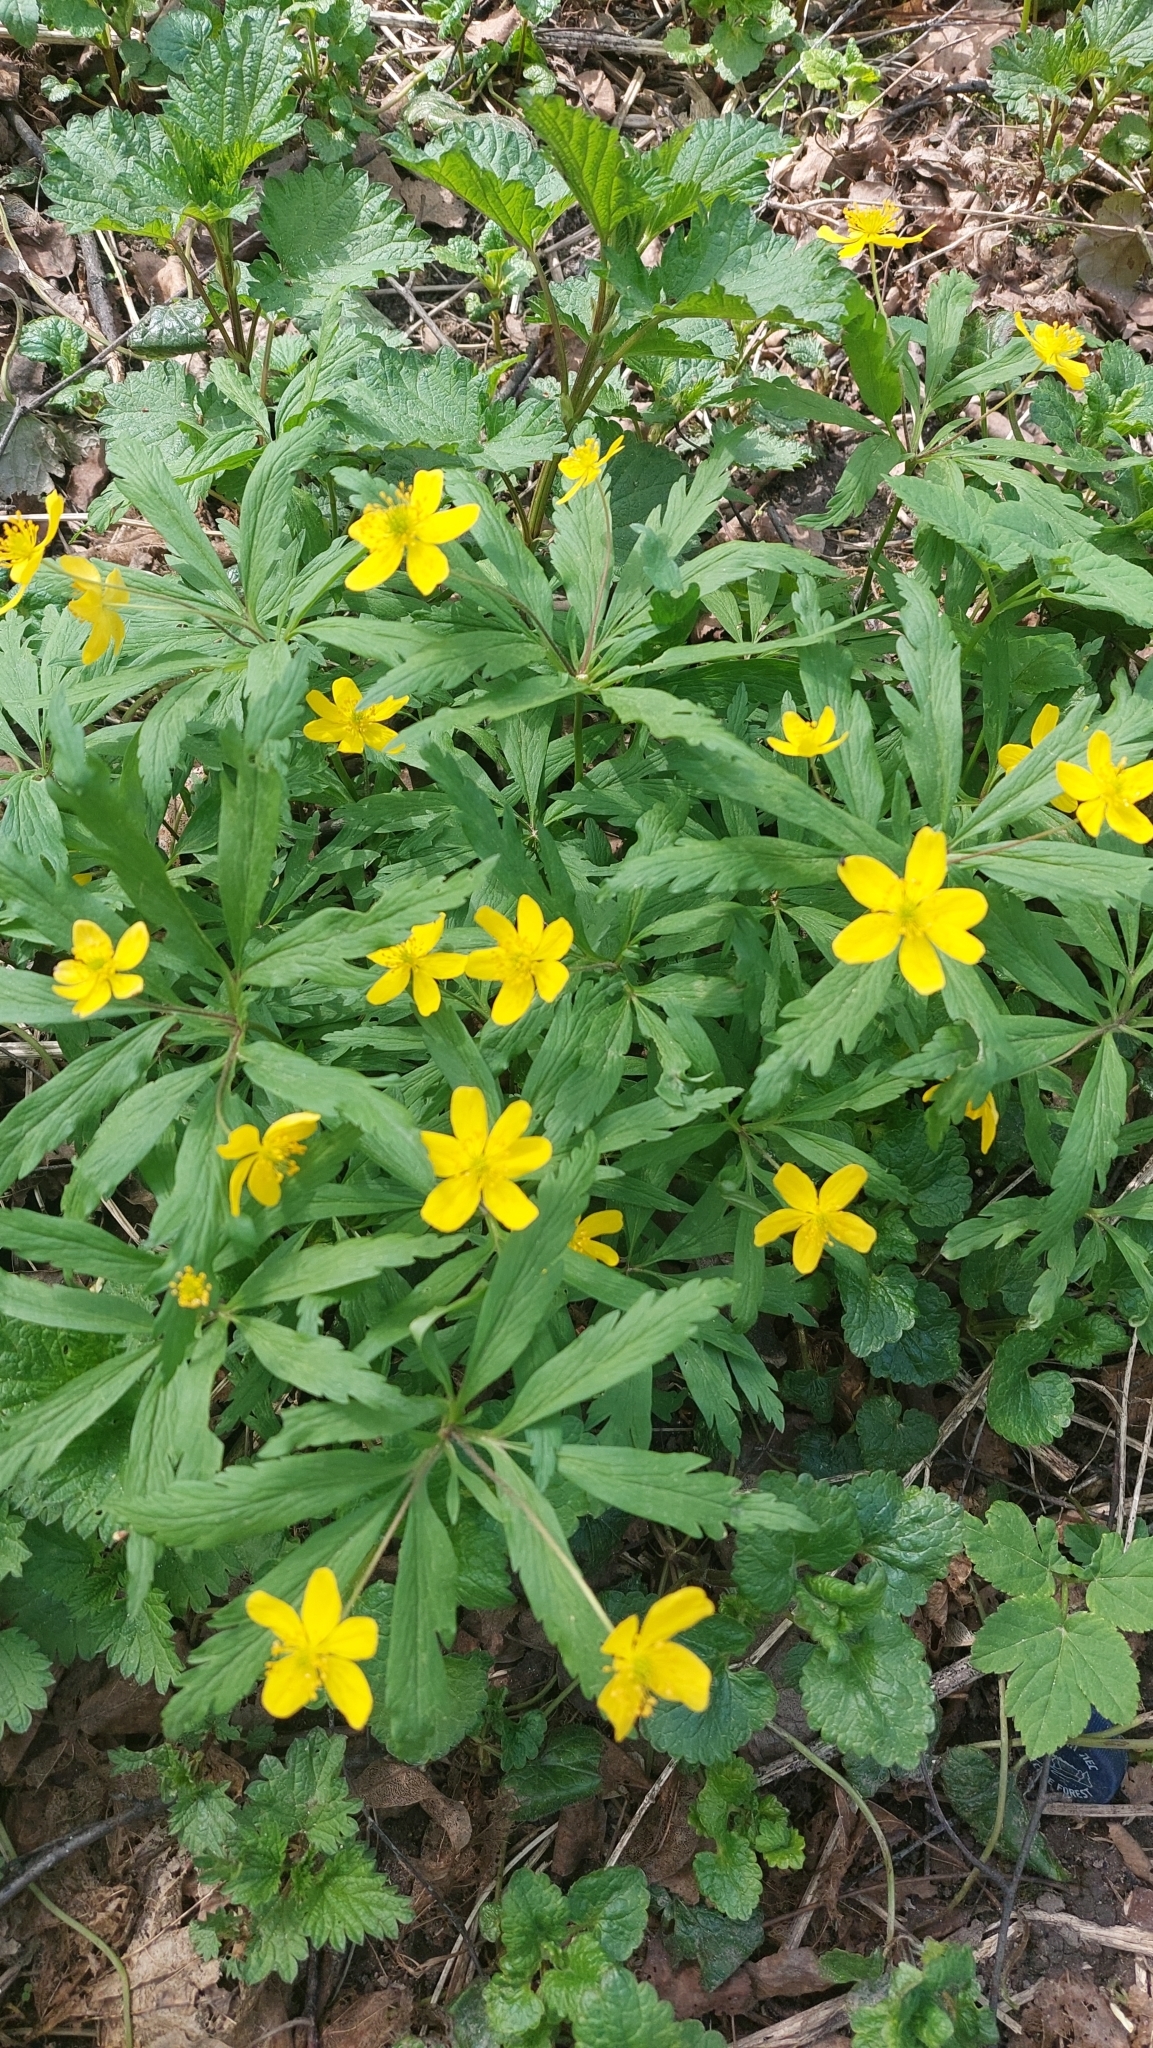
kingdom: Plantae
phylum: Tracheophyta
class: Magnoliopsida
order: Ranunculales
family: Ranunculaceae
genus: Anemone
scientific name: Anemone ranunculoides
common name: Yellow anemone
